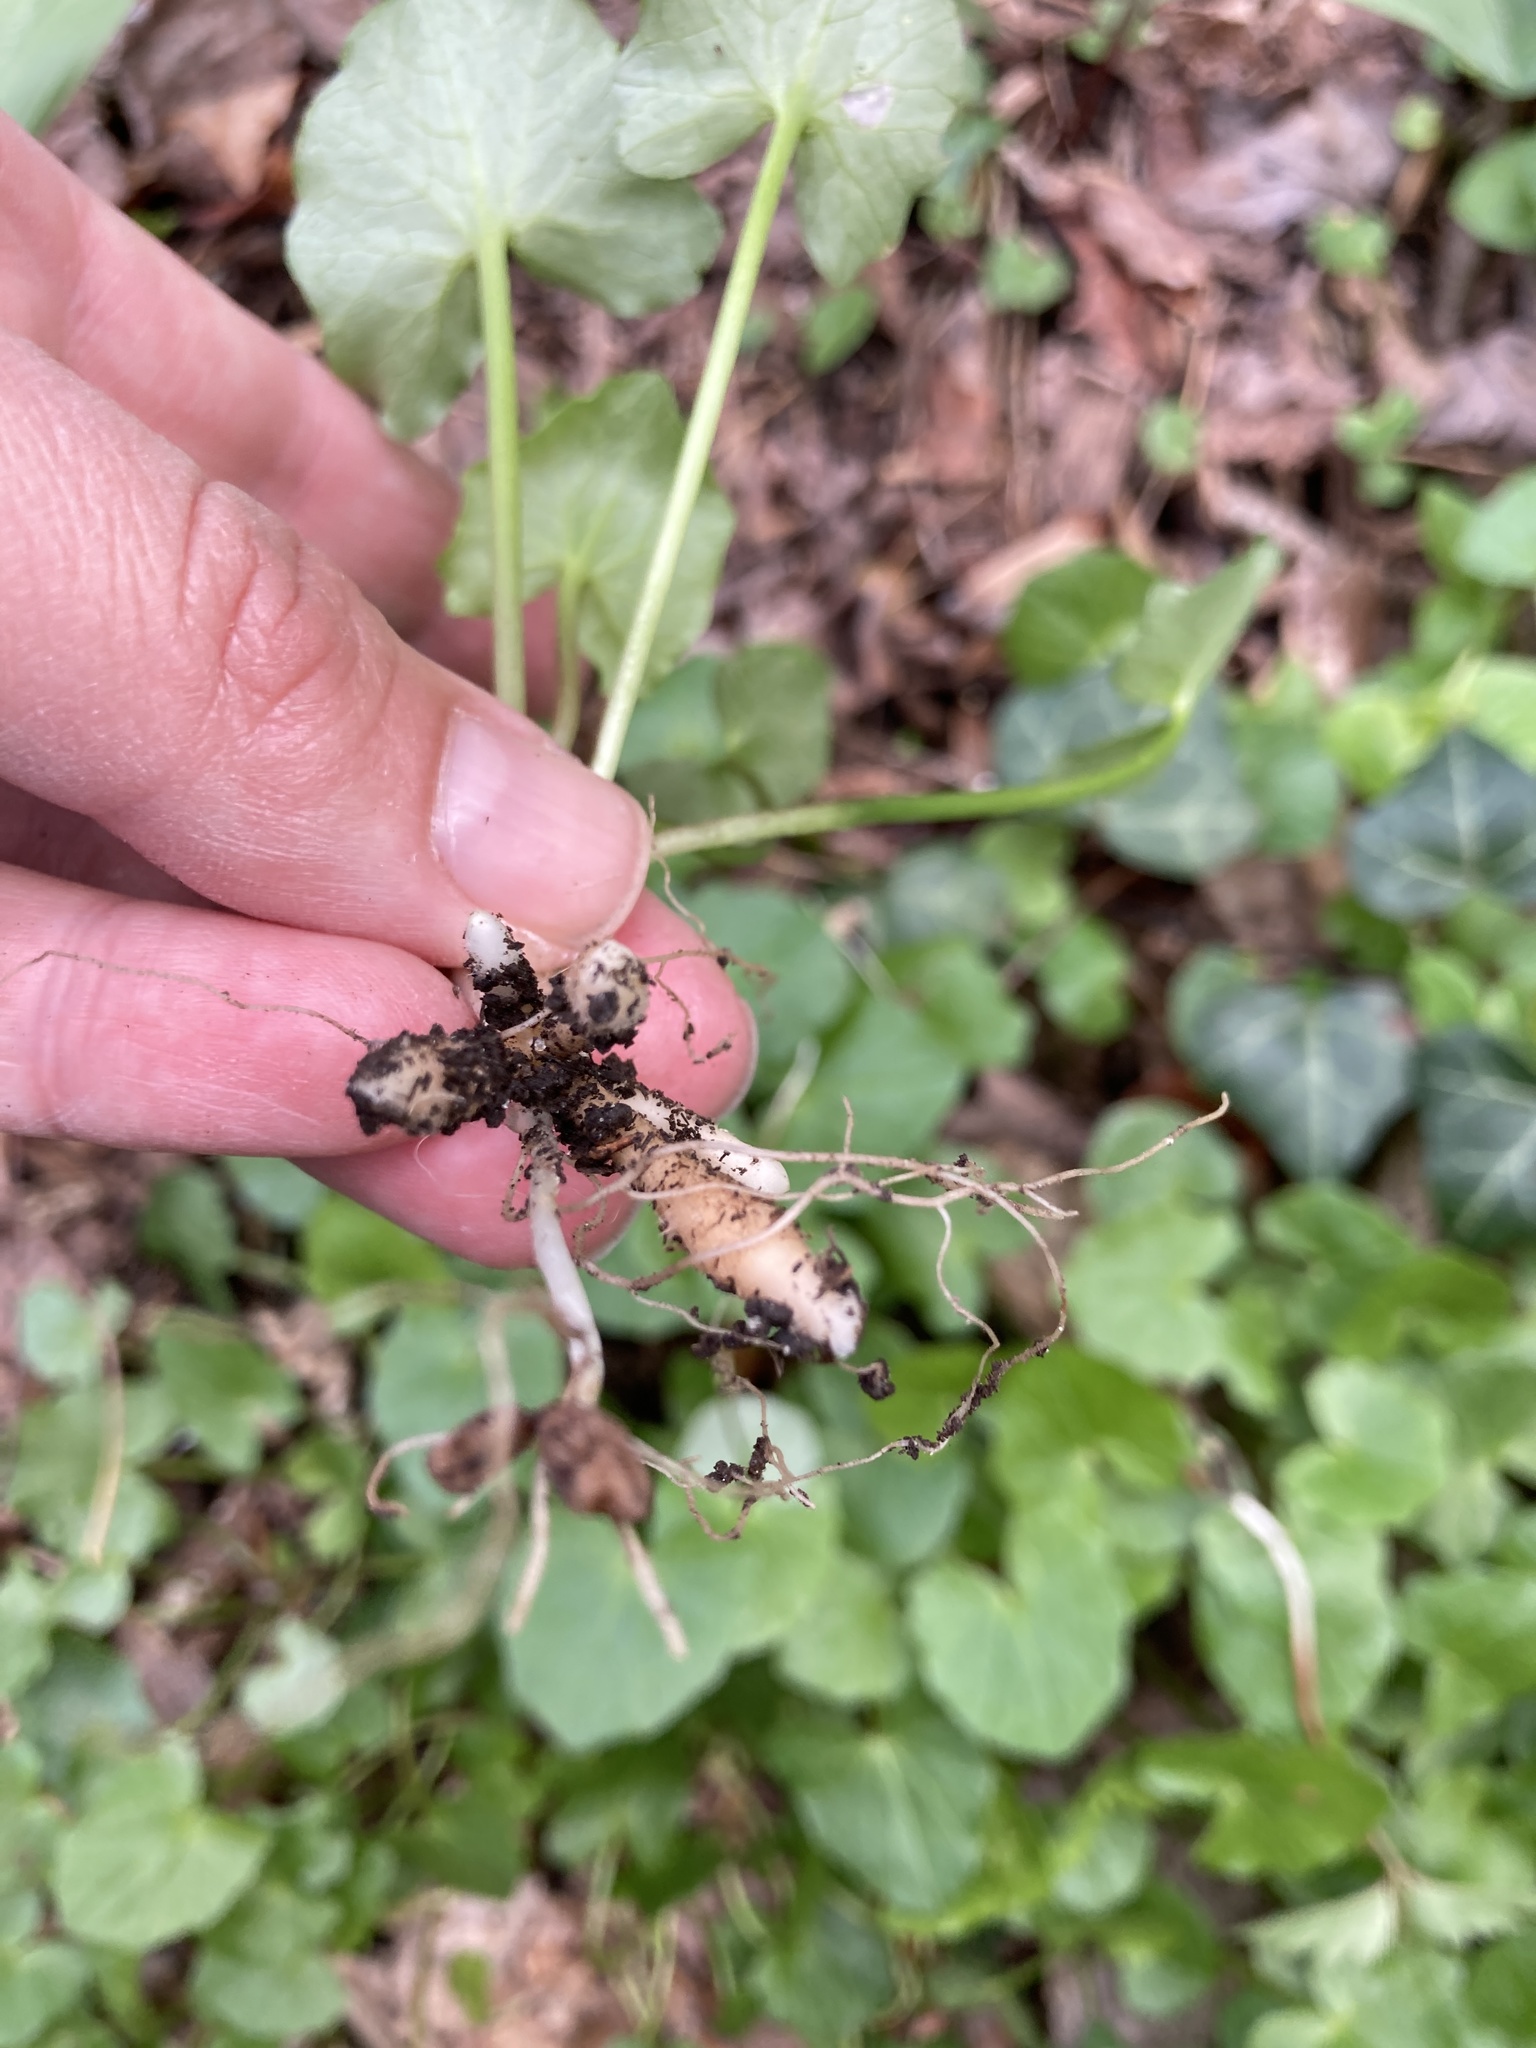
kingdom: Plantae
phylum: Tracheophyta
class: Magnoliopsida
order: Ranunculales
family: Ranunculaceae
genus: Ficaria
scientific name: Ficaria verna
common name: Lesser celandine
